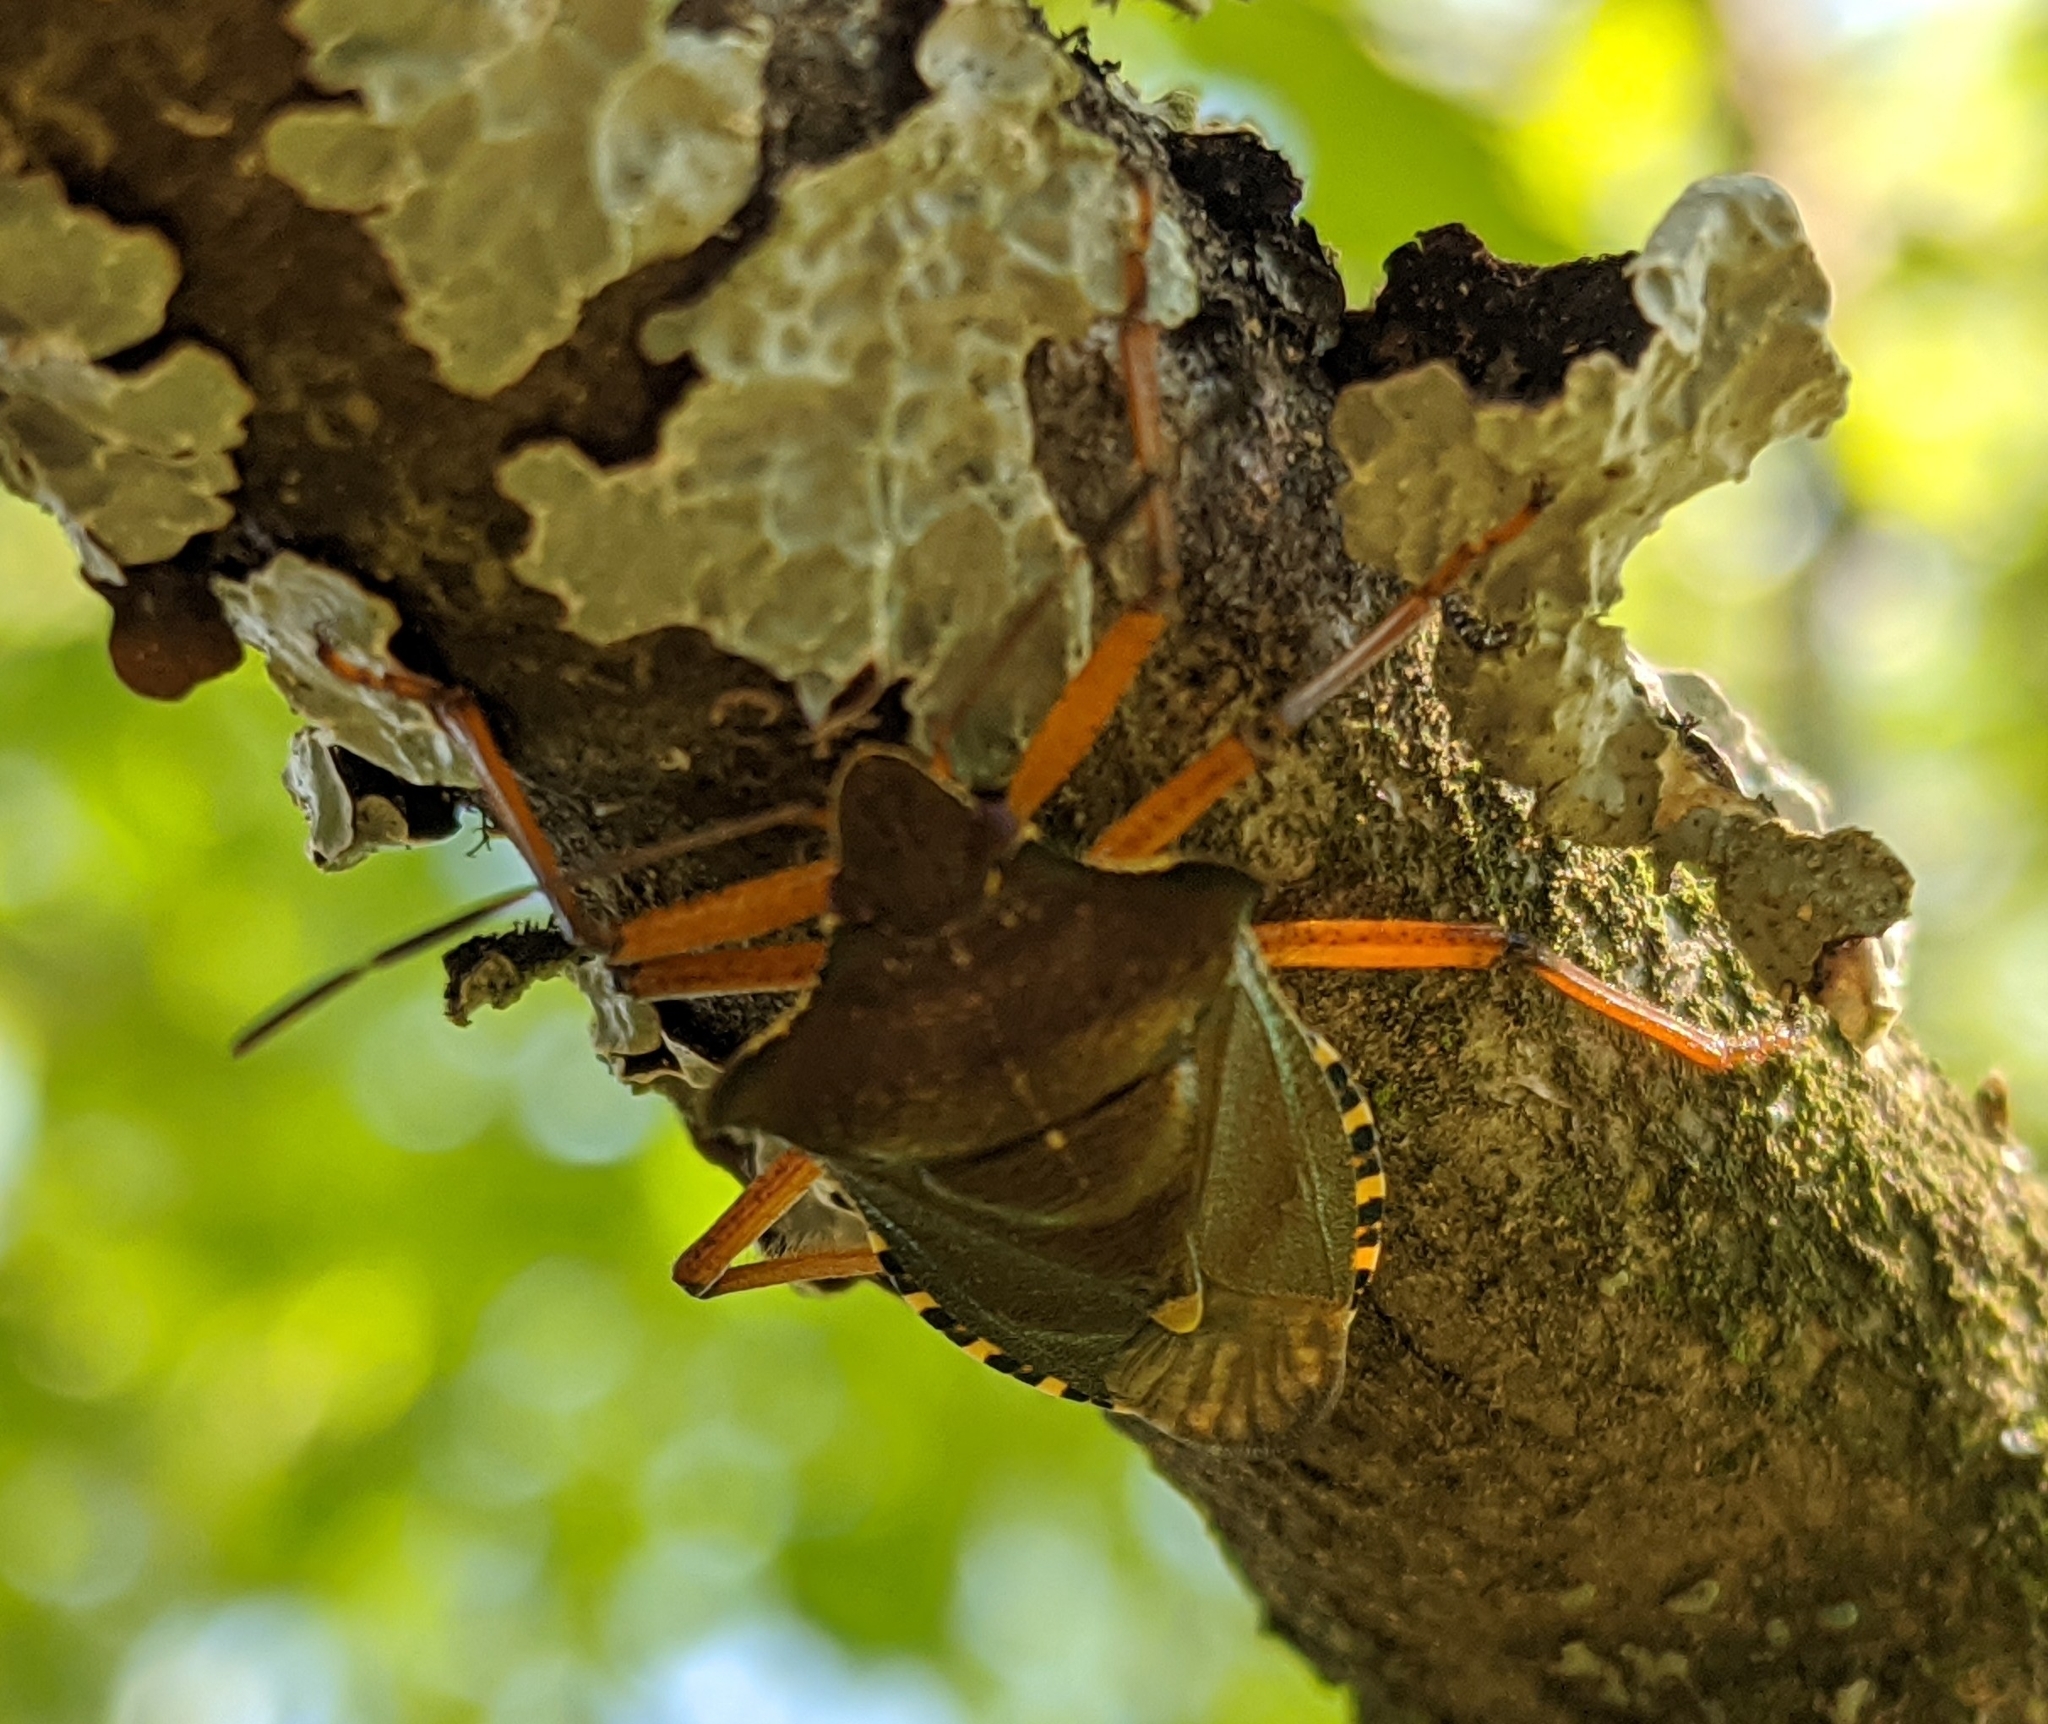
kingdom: Animalia
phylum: Arthropoda
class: Insecta
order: Hemiptera
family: Pentatomidae
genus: Pentatoma
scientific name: Pentatoma rufipes
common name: Forest bug
